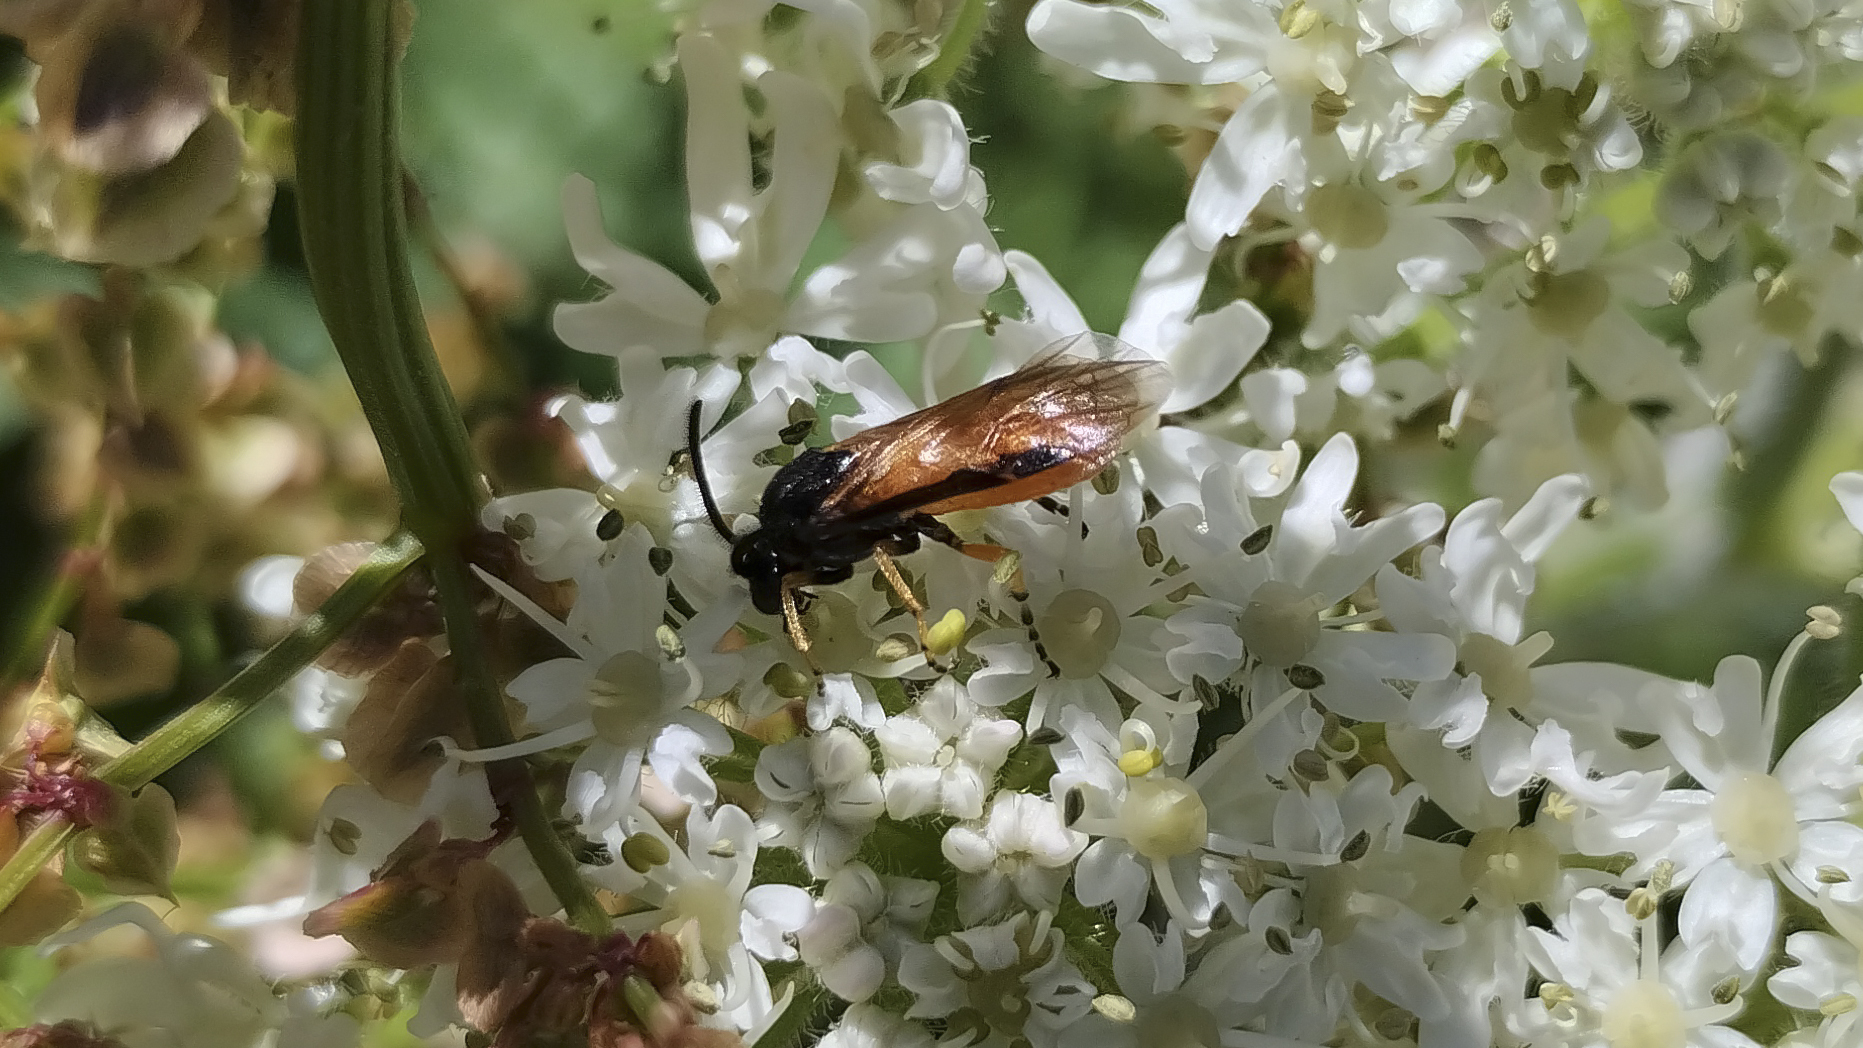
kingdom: Animalia
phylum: Arthropoda
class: Insecta
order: Hymenoptera
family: Argidae
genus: Arge
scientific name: Arge ochropus
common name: Argid sawfly
